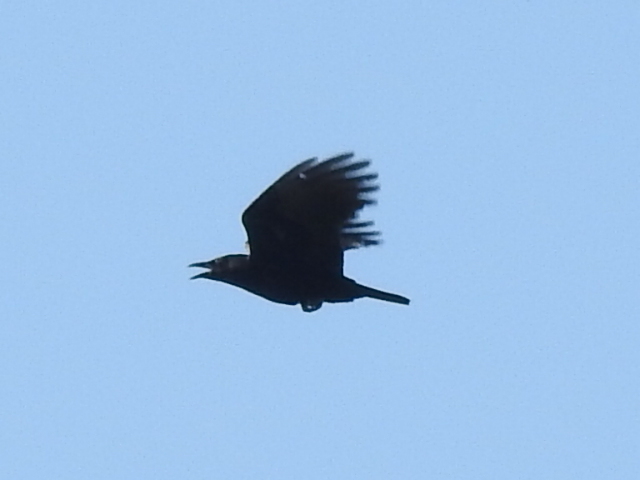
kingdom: Animalia
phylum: Chordata
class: Aves
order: Passeriformes
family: Corvidae
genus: Corvus
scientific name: Corvus brachyrhynchos
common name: American crow
